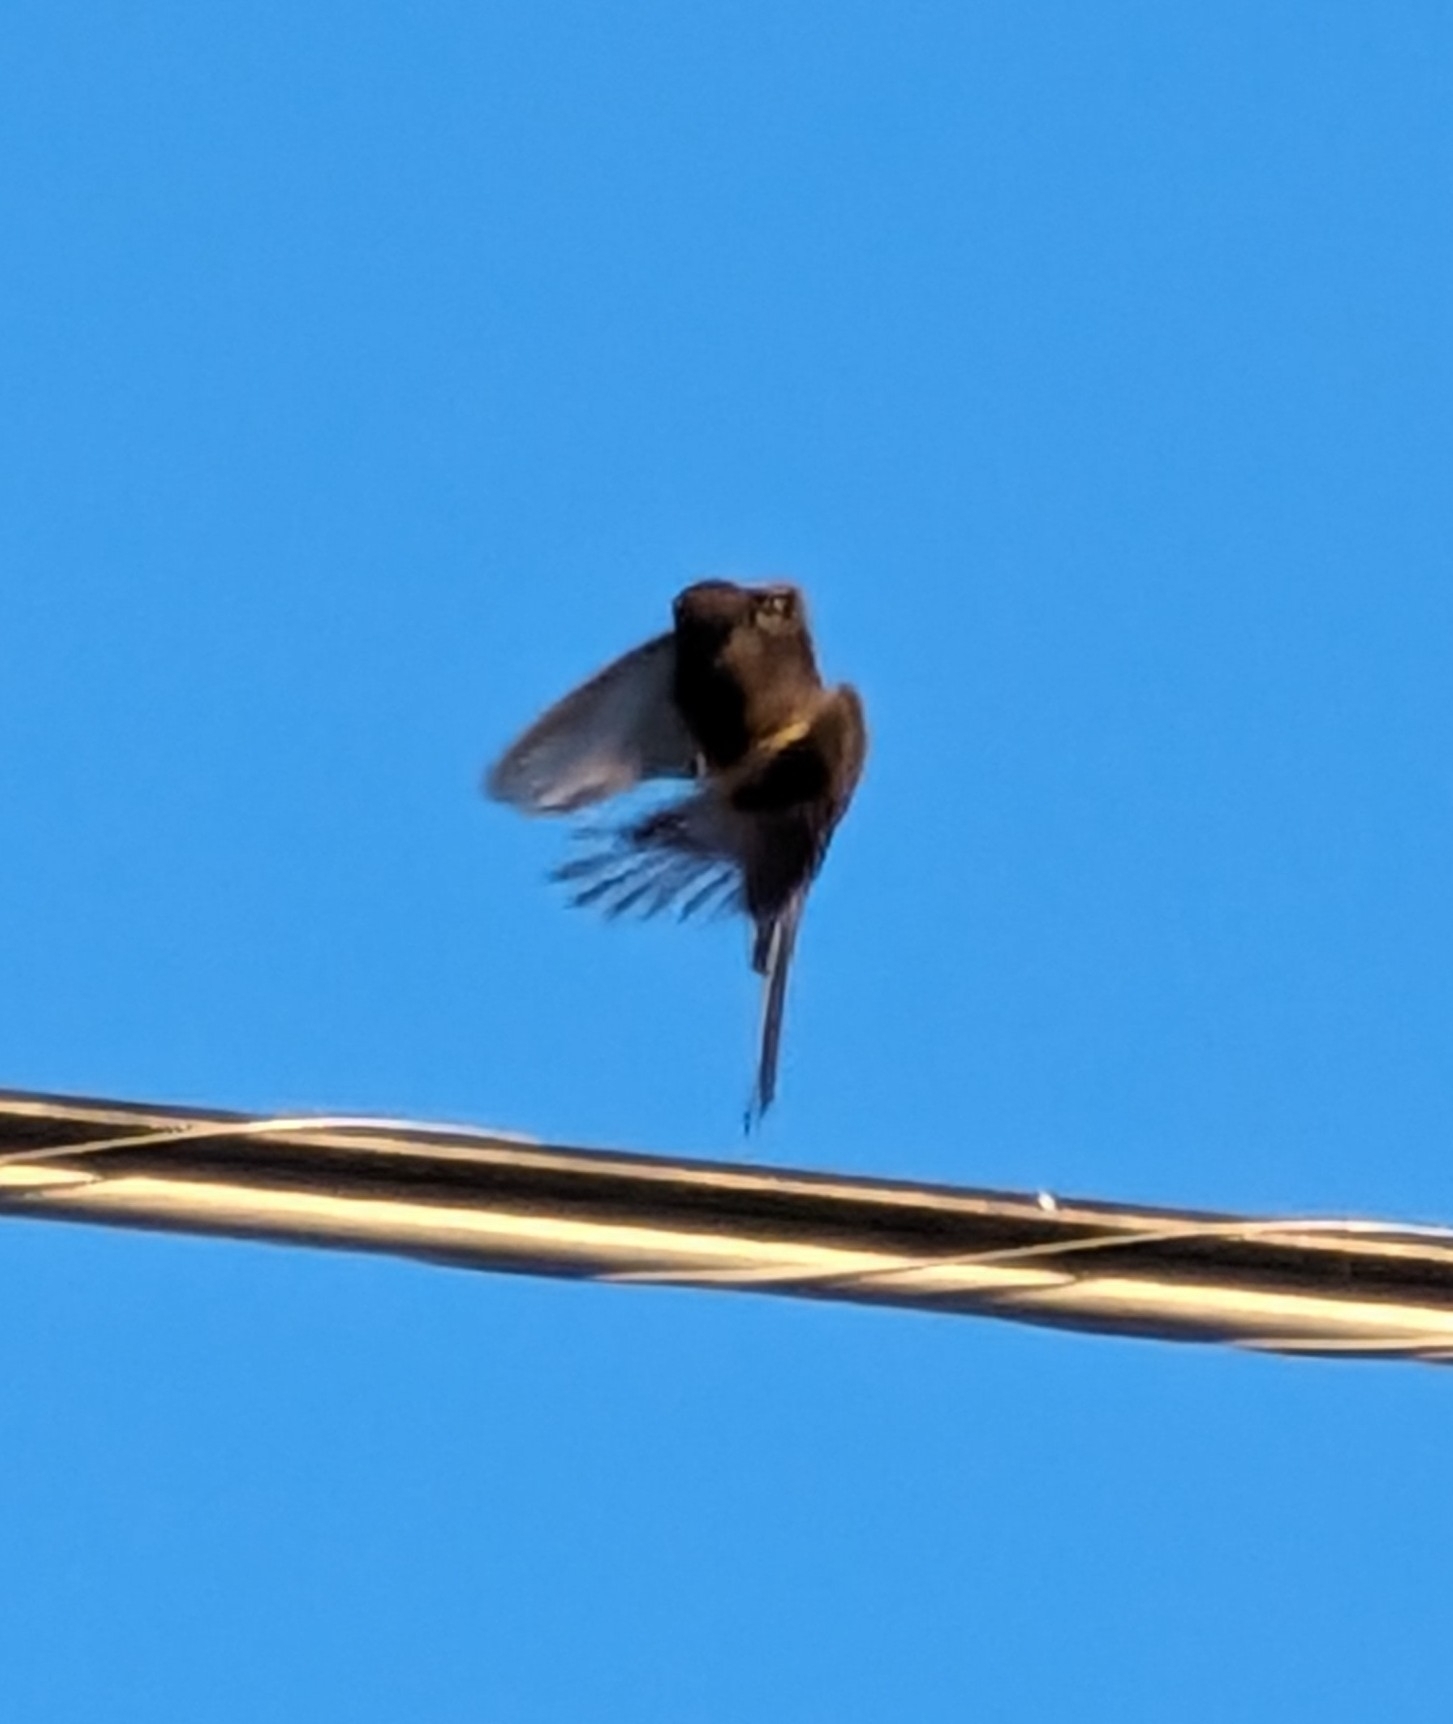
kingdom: Animalia
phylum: Chordata
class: Aves
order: Passeriformes
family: Tyrannidae
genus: Sayornis
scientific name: Sayornis nigricans
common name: Black phoebe
